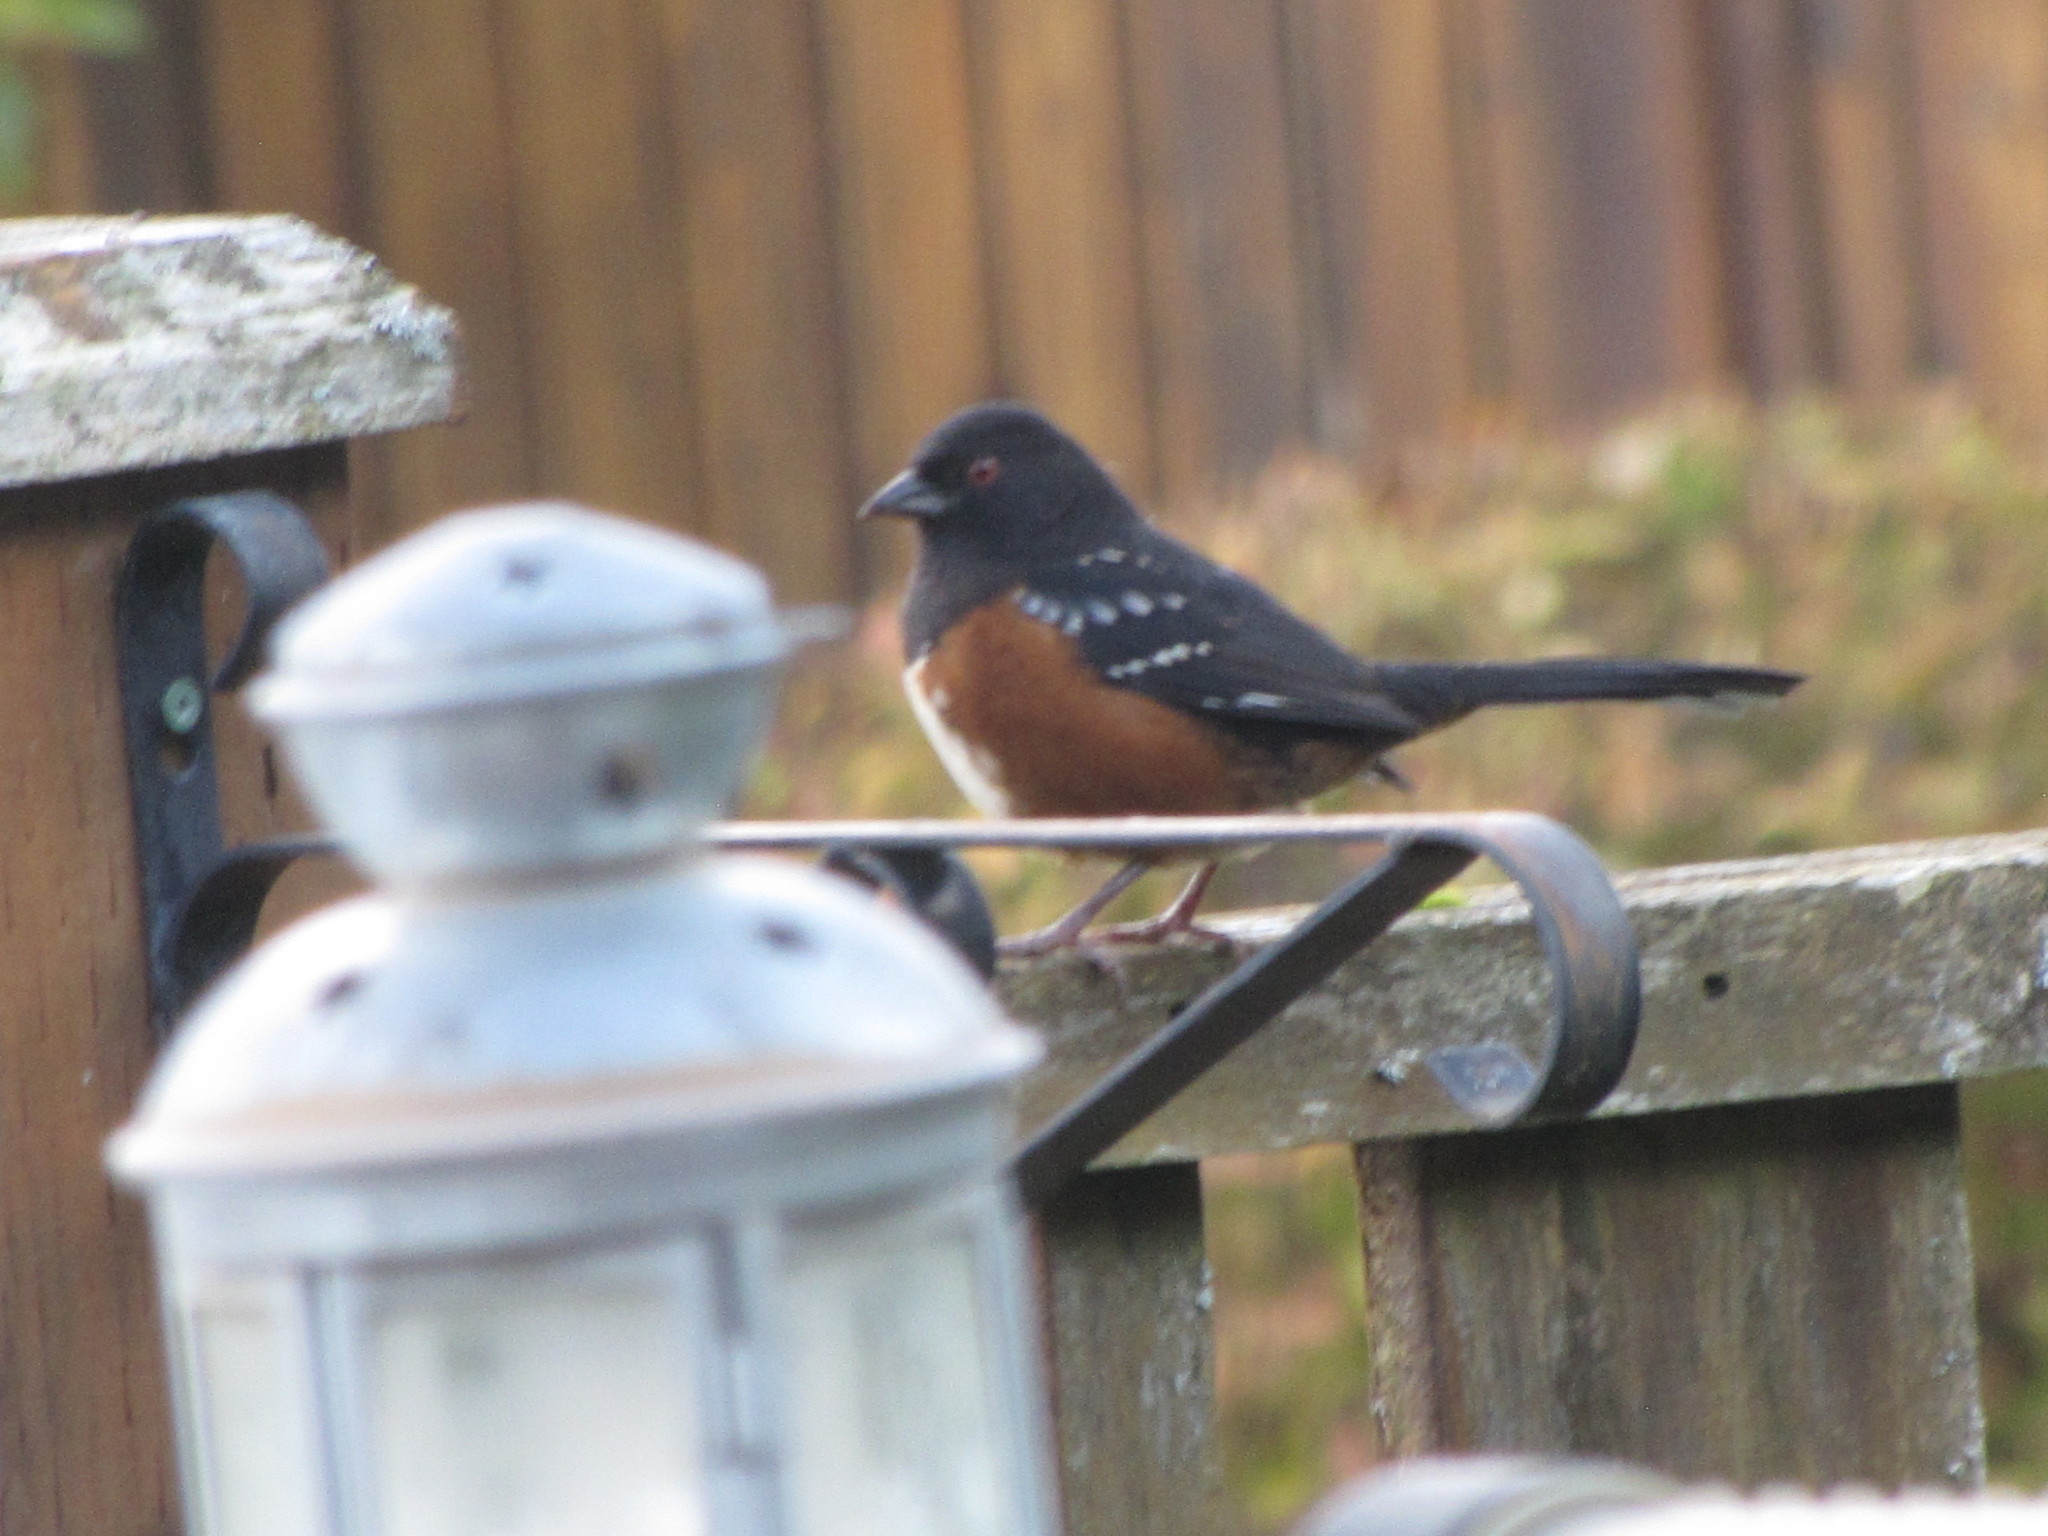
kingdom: Animalia
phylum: Chordata
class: Aves
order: Passeriformes
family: Passerellidae
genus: Pipilo
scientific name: Pipilo maculatus
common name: Spotted towhee
